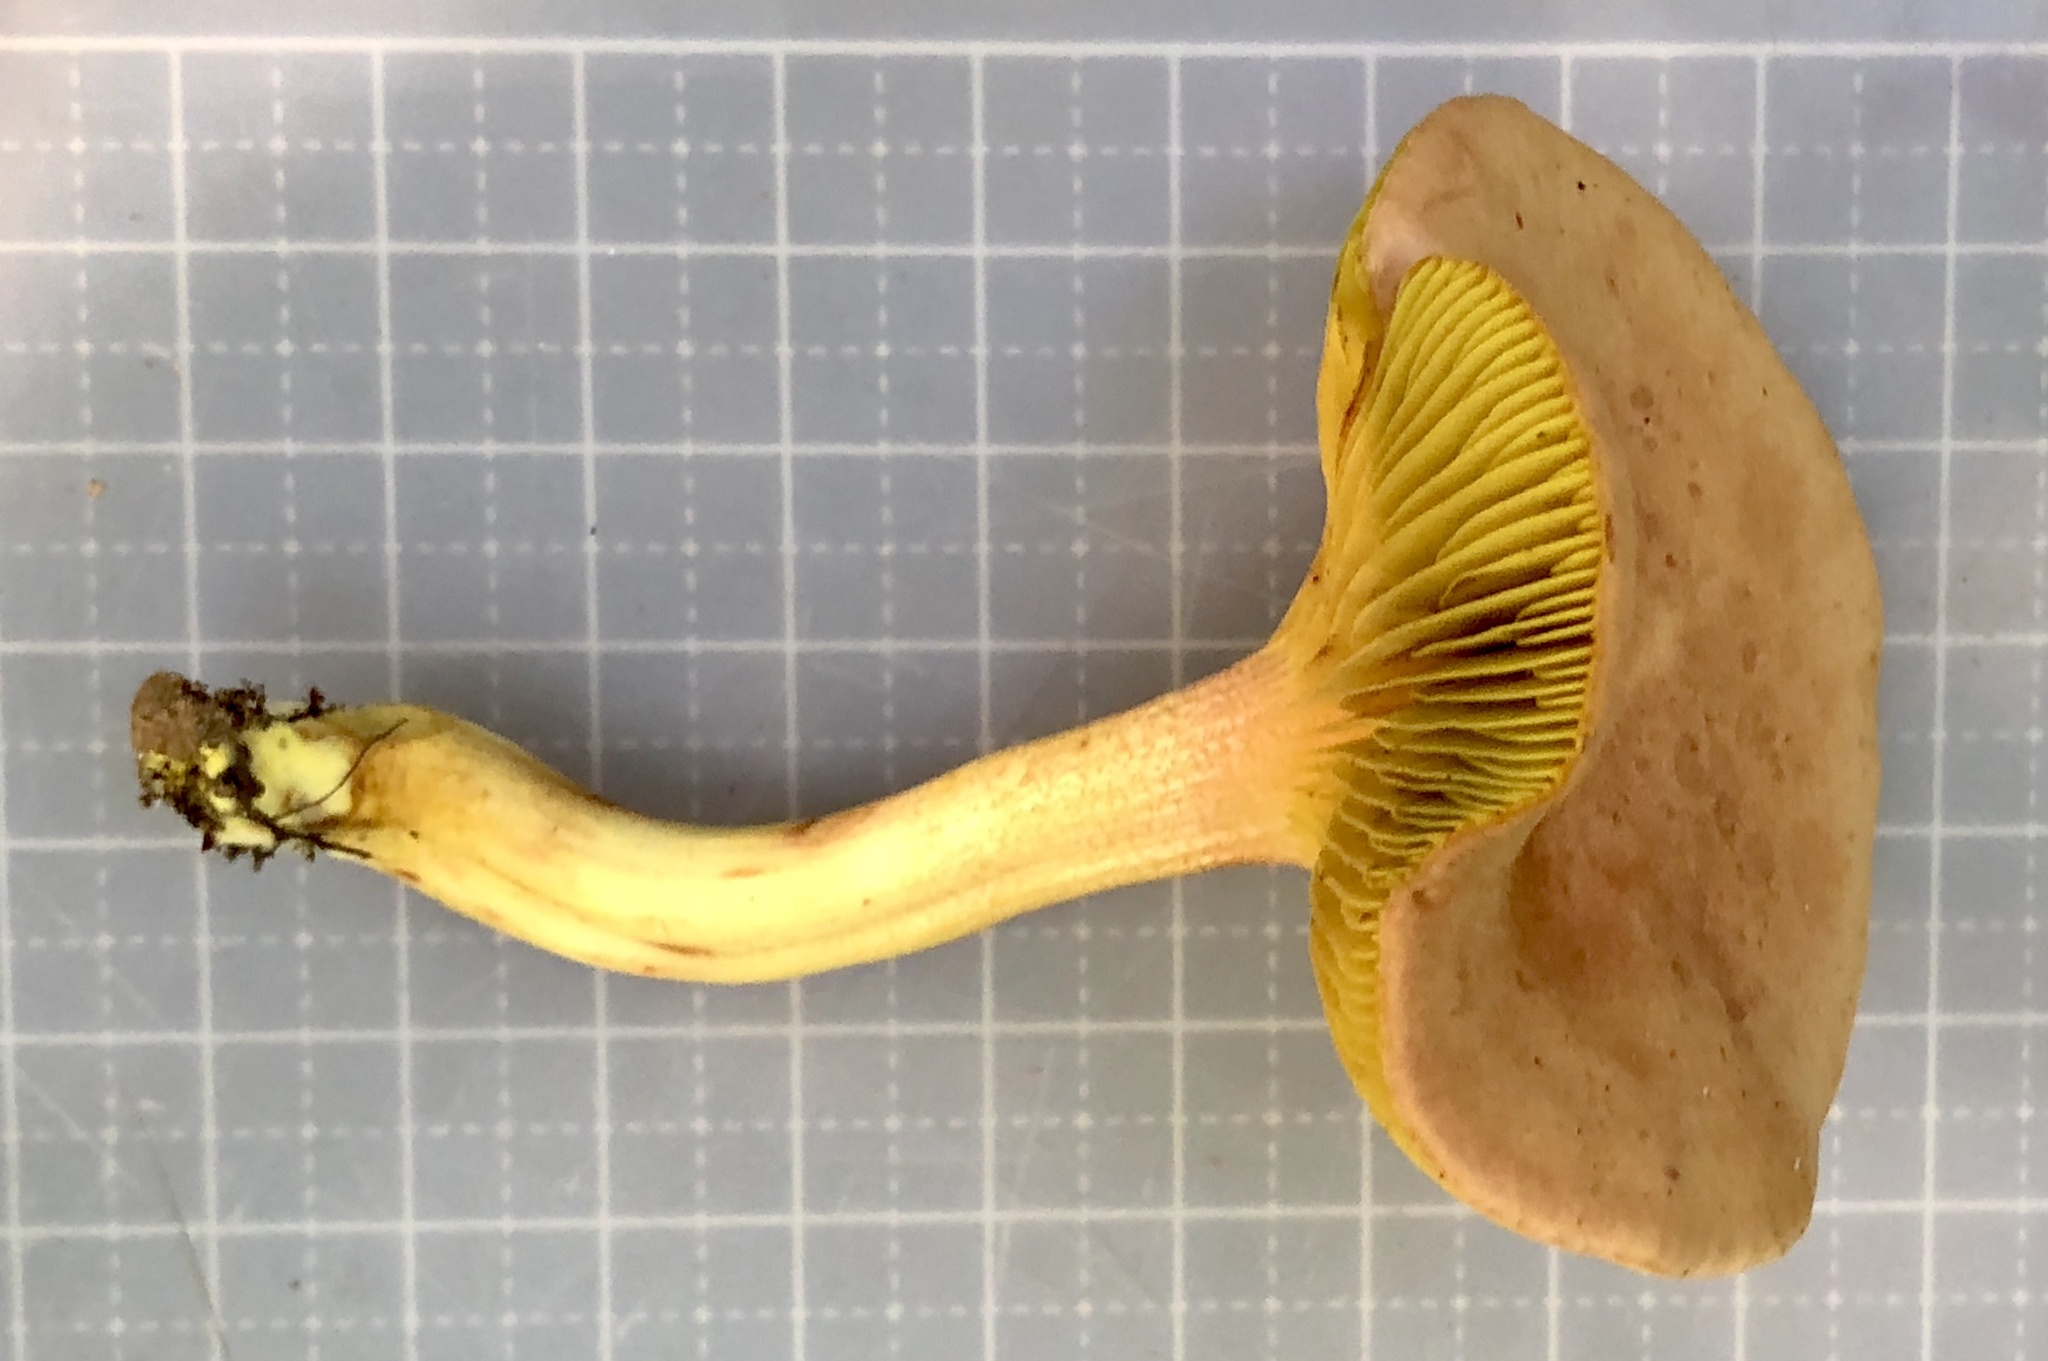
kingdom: Fungi
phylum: Basidiomycota
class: Agaricomycetes
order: Boletales
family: Boletaceae
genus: Phylloporus
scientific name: Phylloporus rhodoxanthus
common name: Golden gilled bolete
